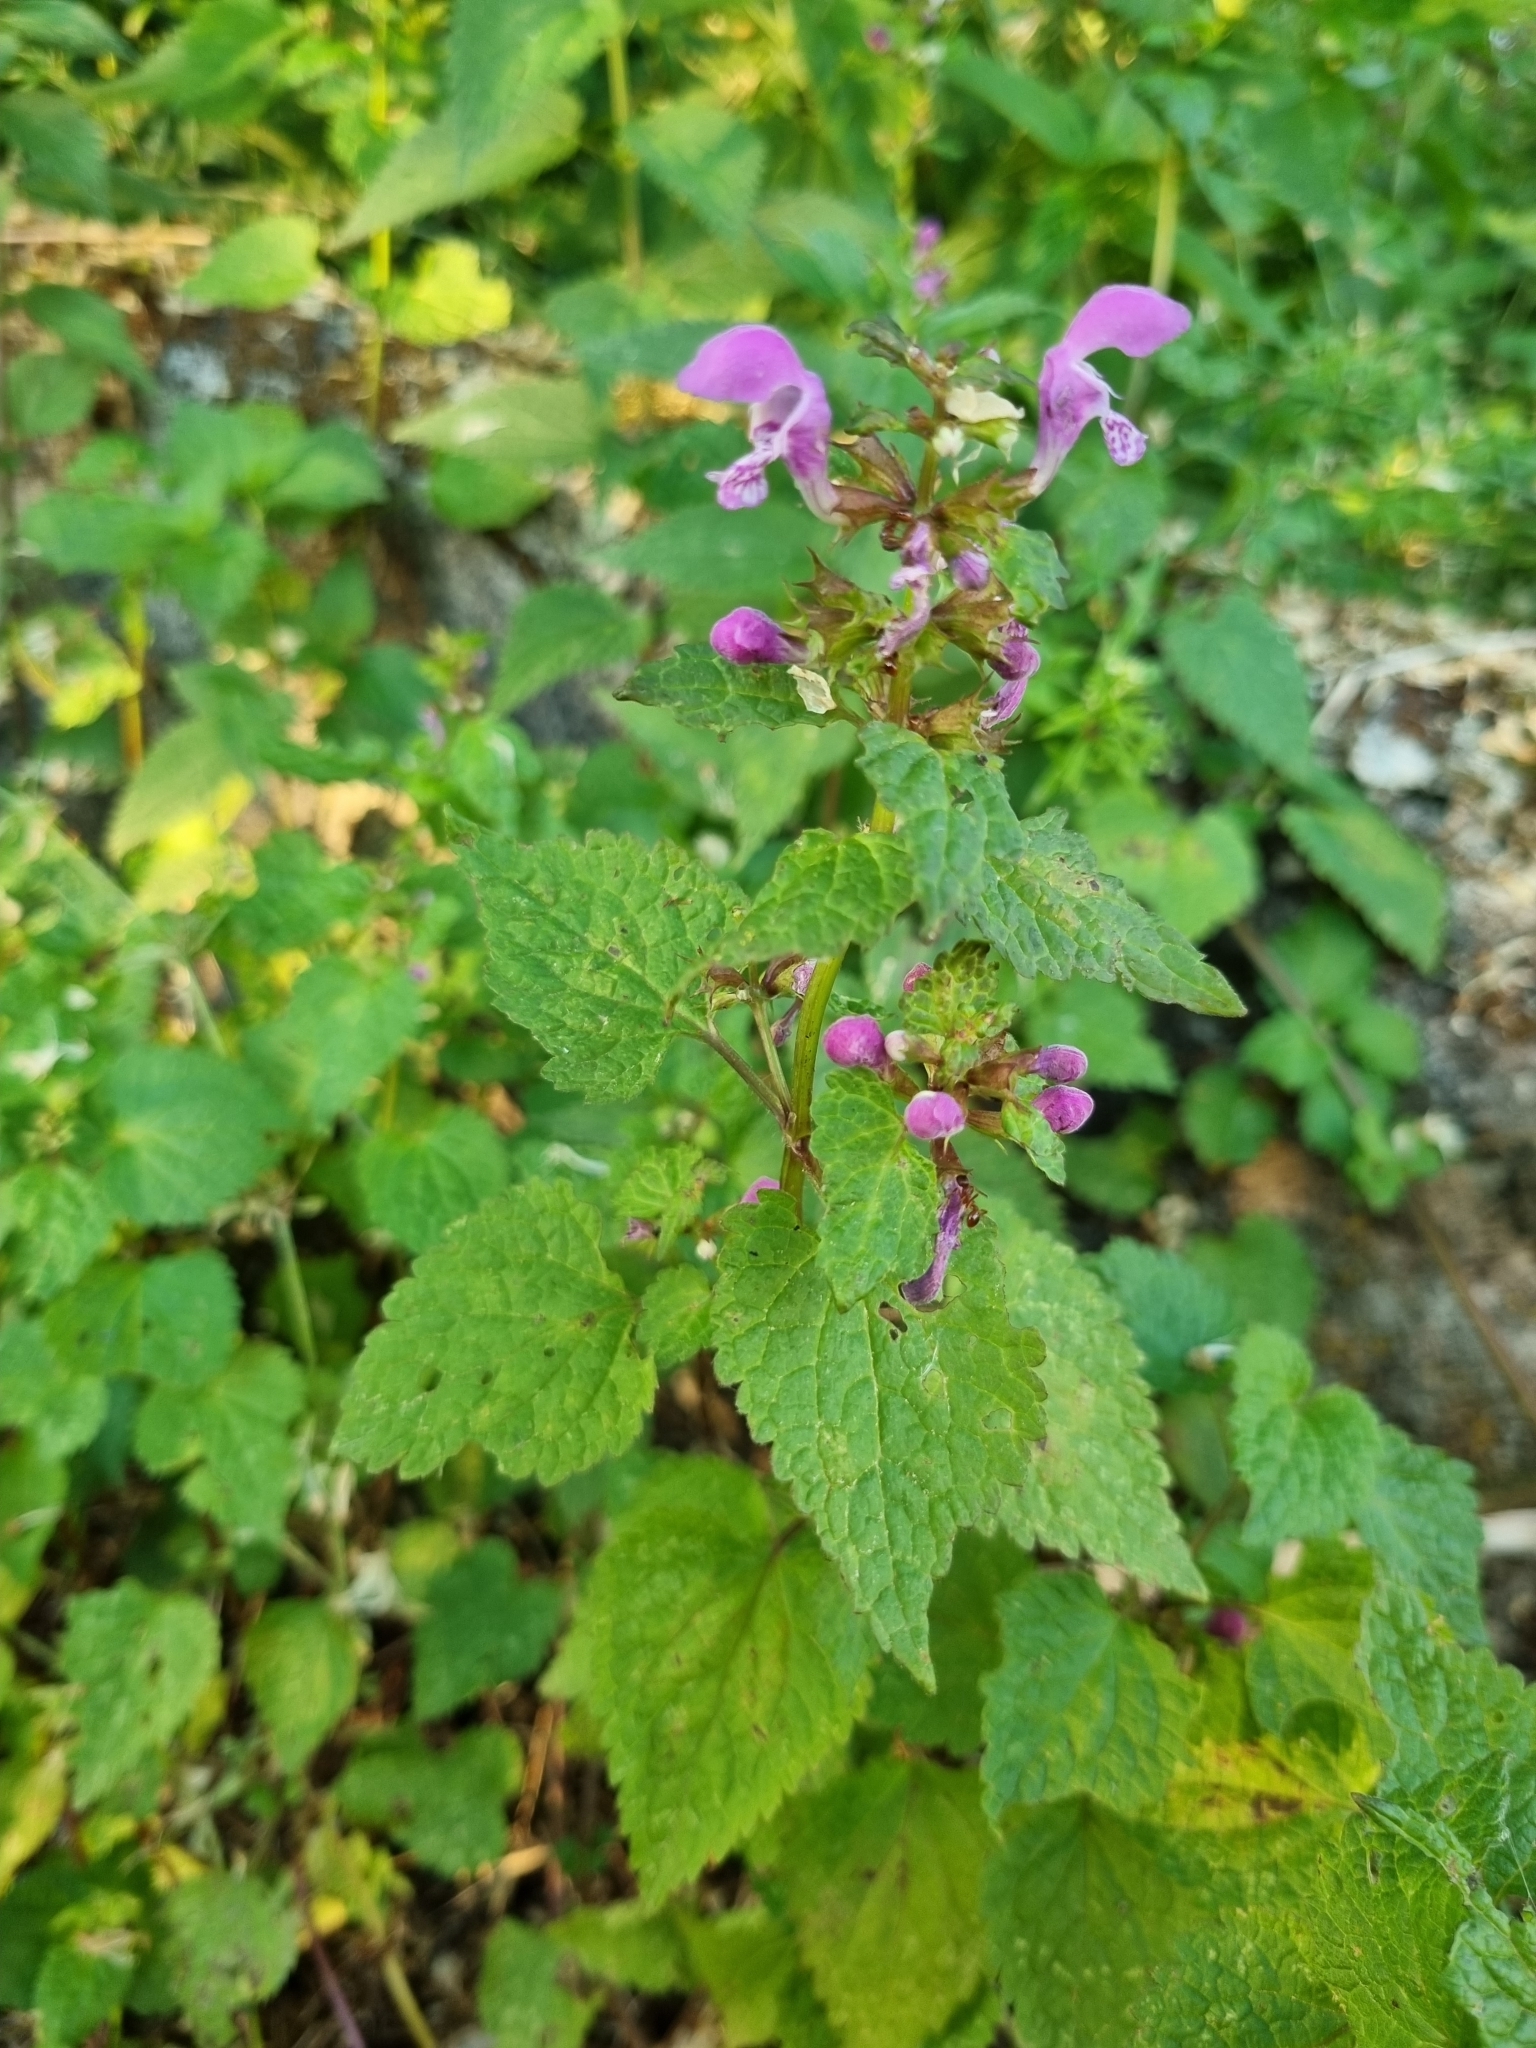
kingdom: Plantae
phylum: Tracheophyta
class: Magnoliopsida
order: Lamiales
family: Lamiaceae
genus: Lamium
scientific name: Lamium maculatum
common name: Spotted dead-nettle
